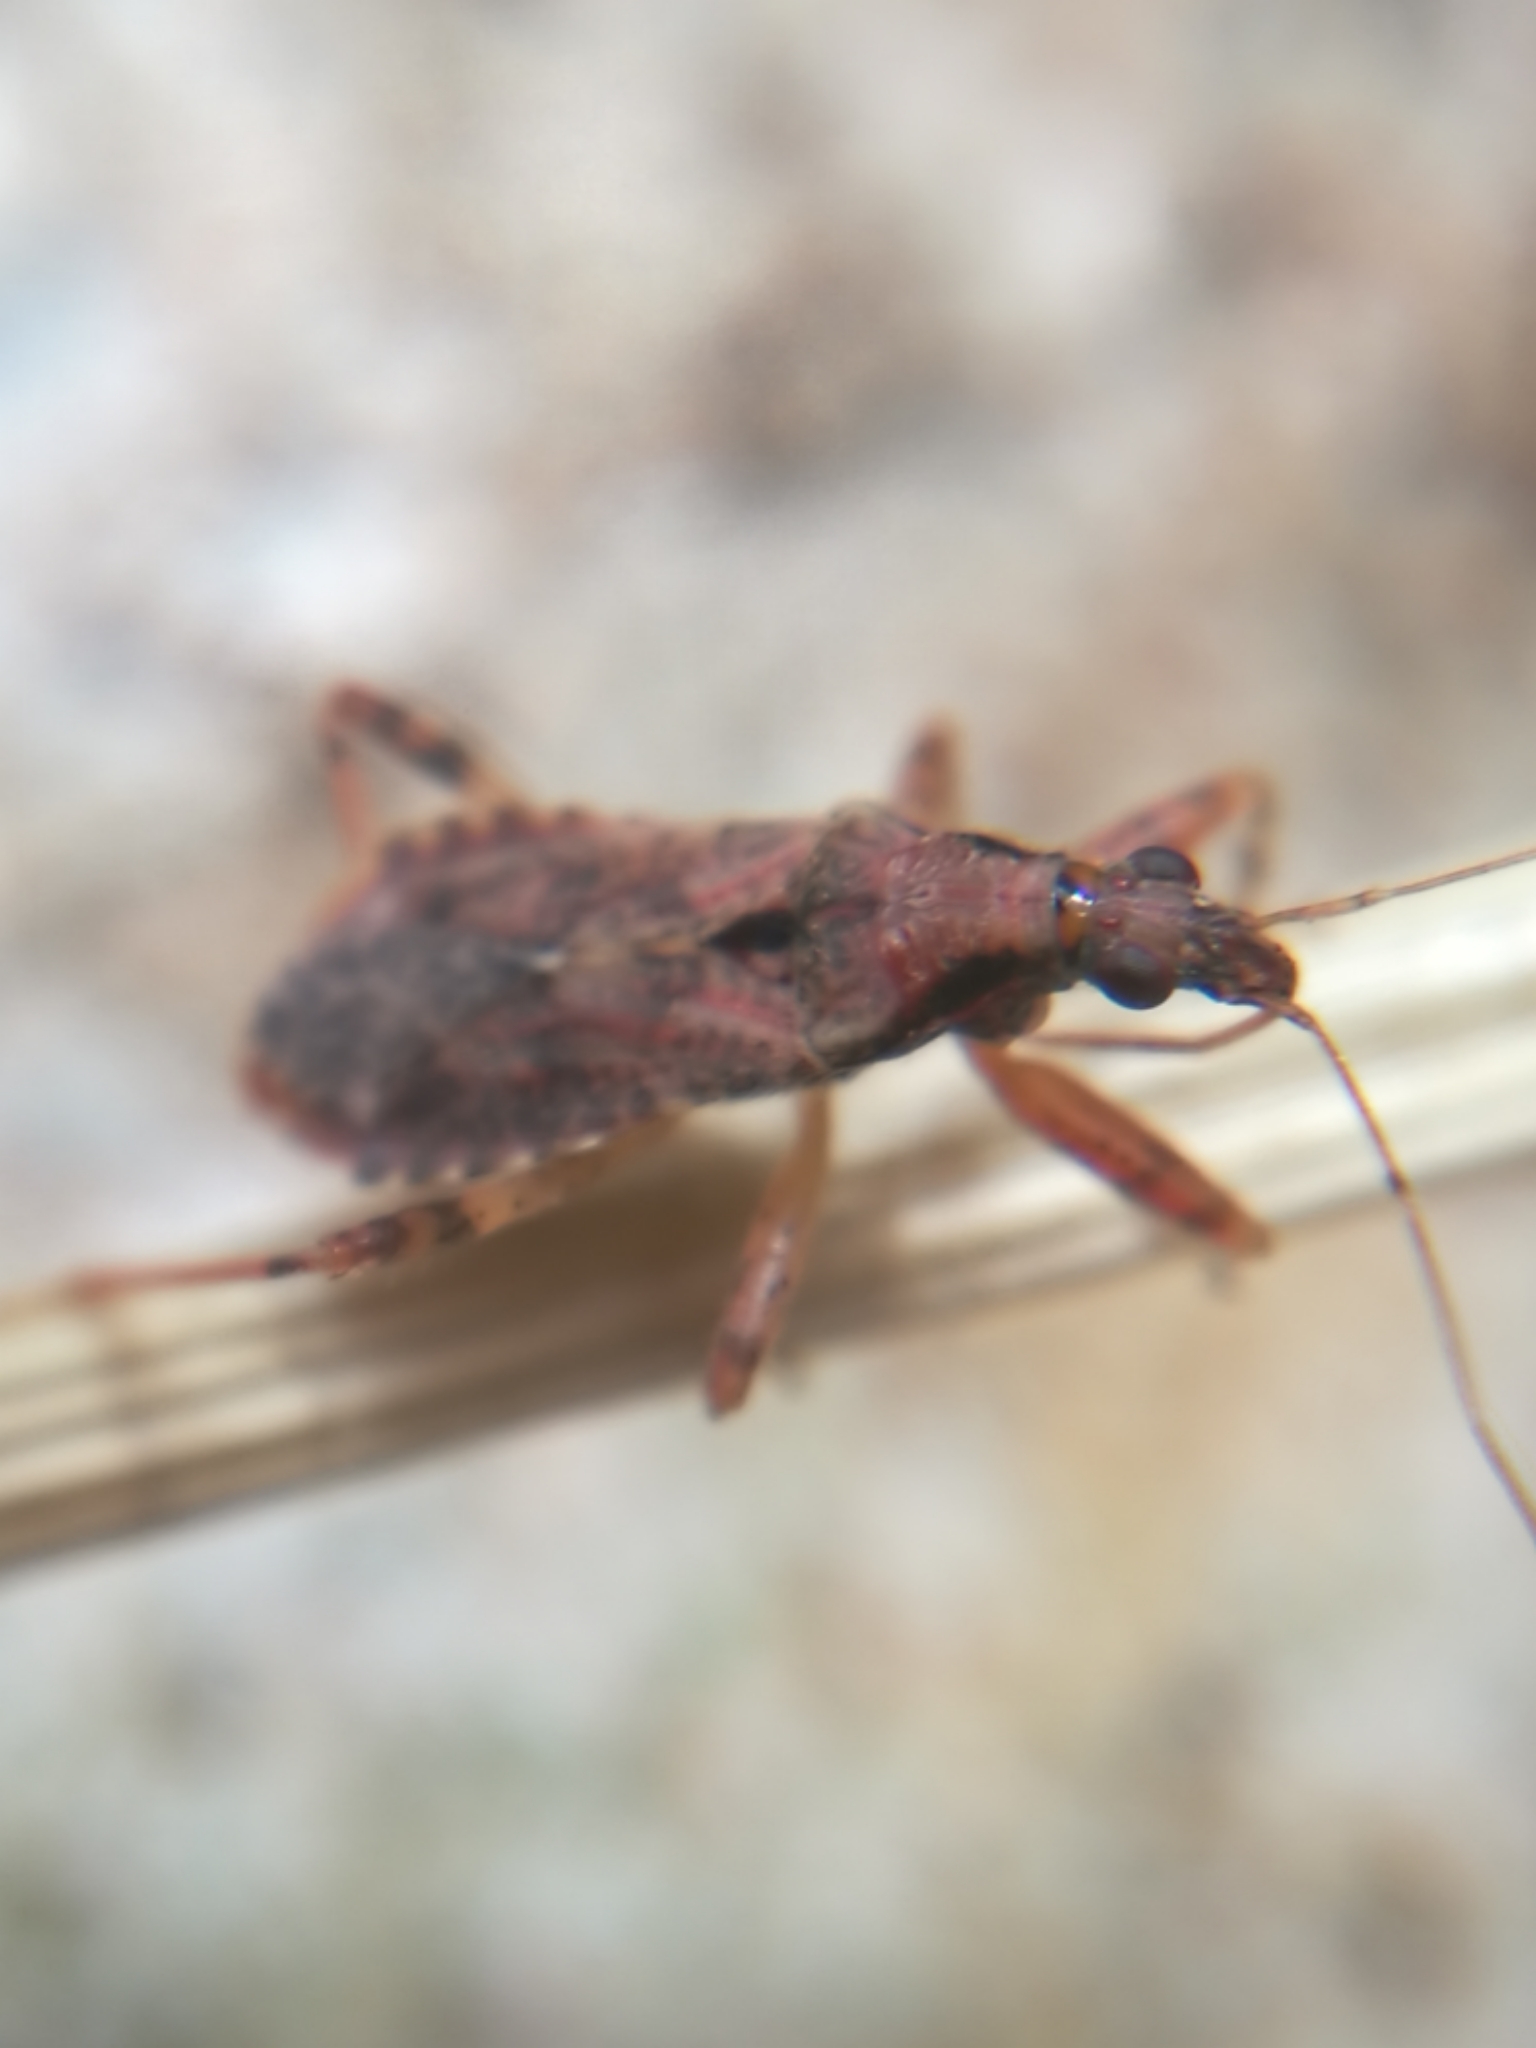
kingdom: Animalia
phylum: Arthropoda
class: Insecta
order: Hemiptera
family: Nabidae
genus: Himacerus
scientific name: Himacerus mirmicoides
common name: Ant damsel bug
